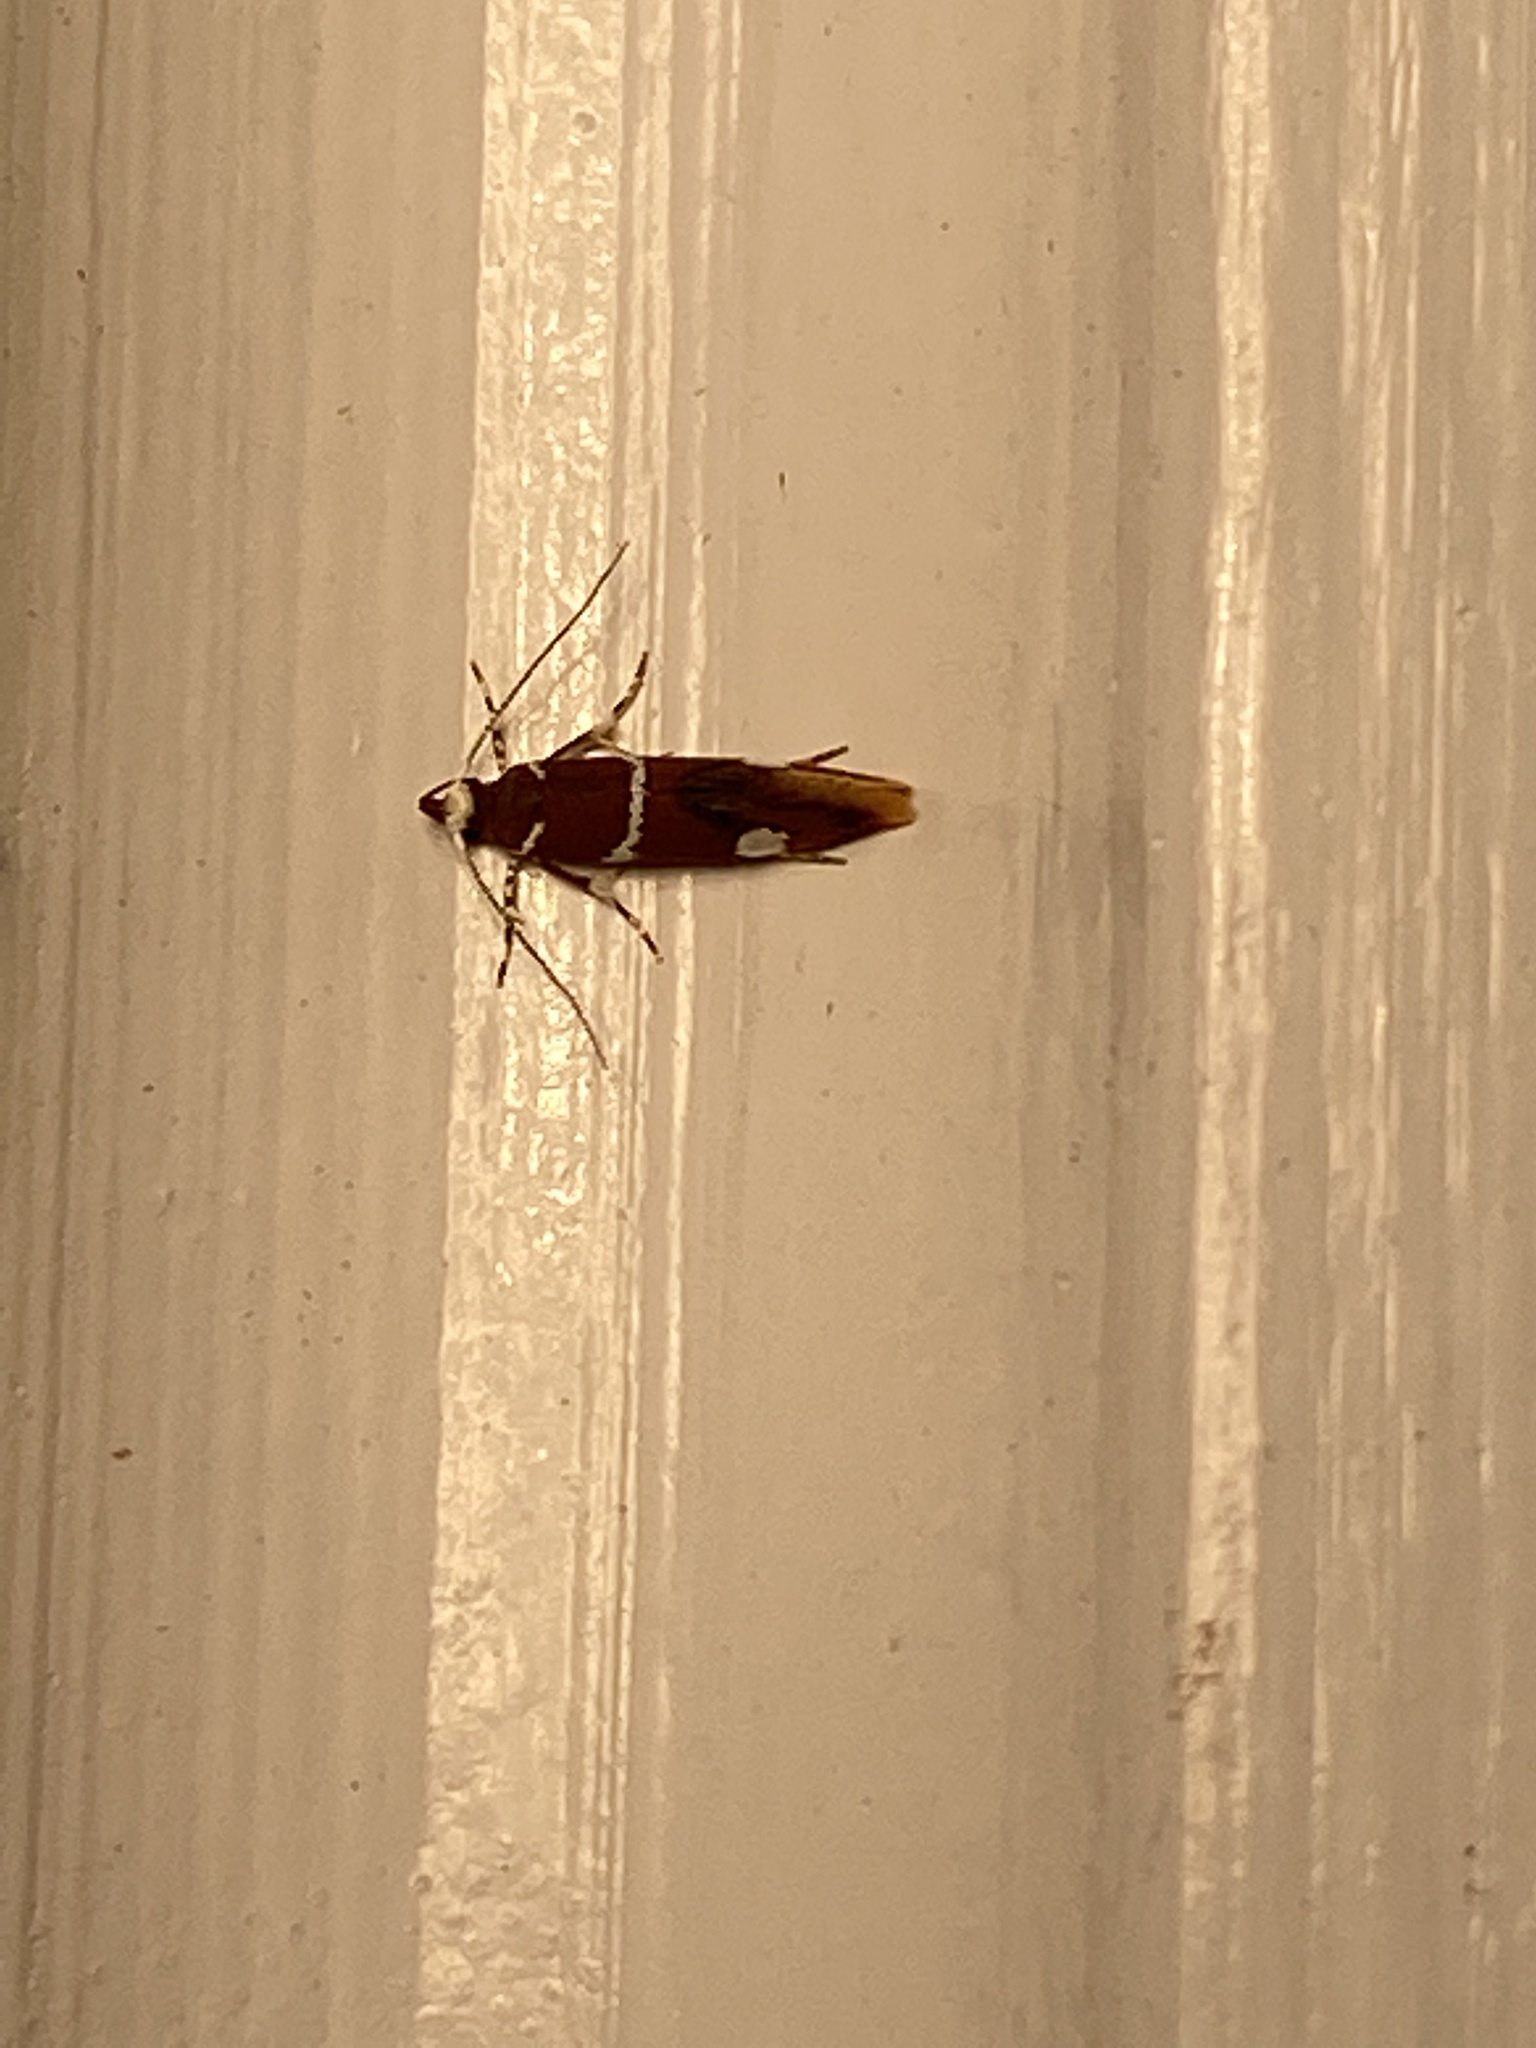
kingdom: Animalia
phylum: Arthropoda
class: Insecta
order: Lepidoptera
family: Oecophoridae
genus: Promalactis
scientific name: Promalactis suzukiella
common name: Moth
